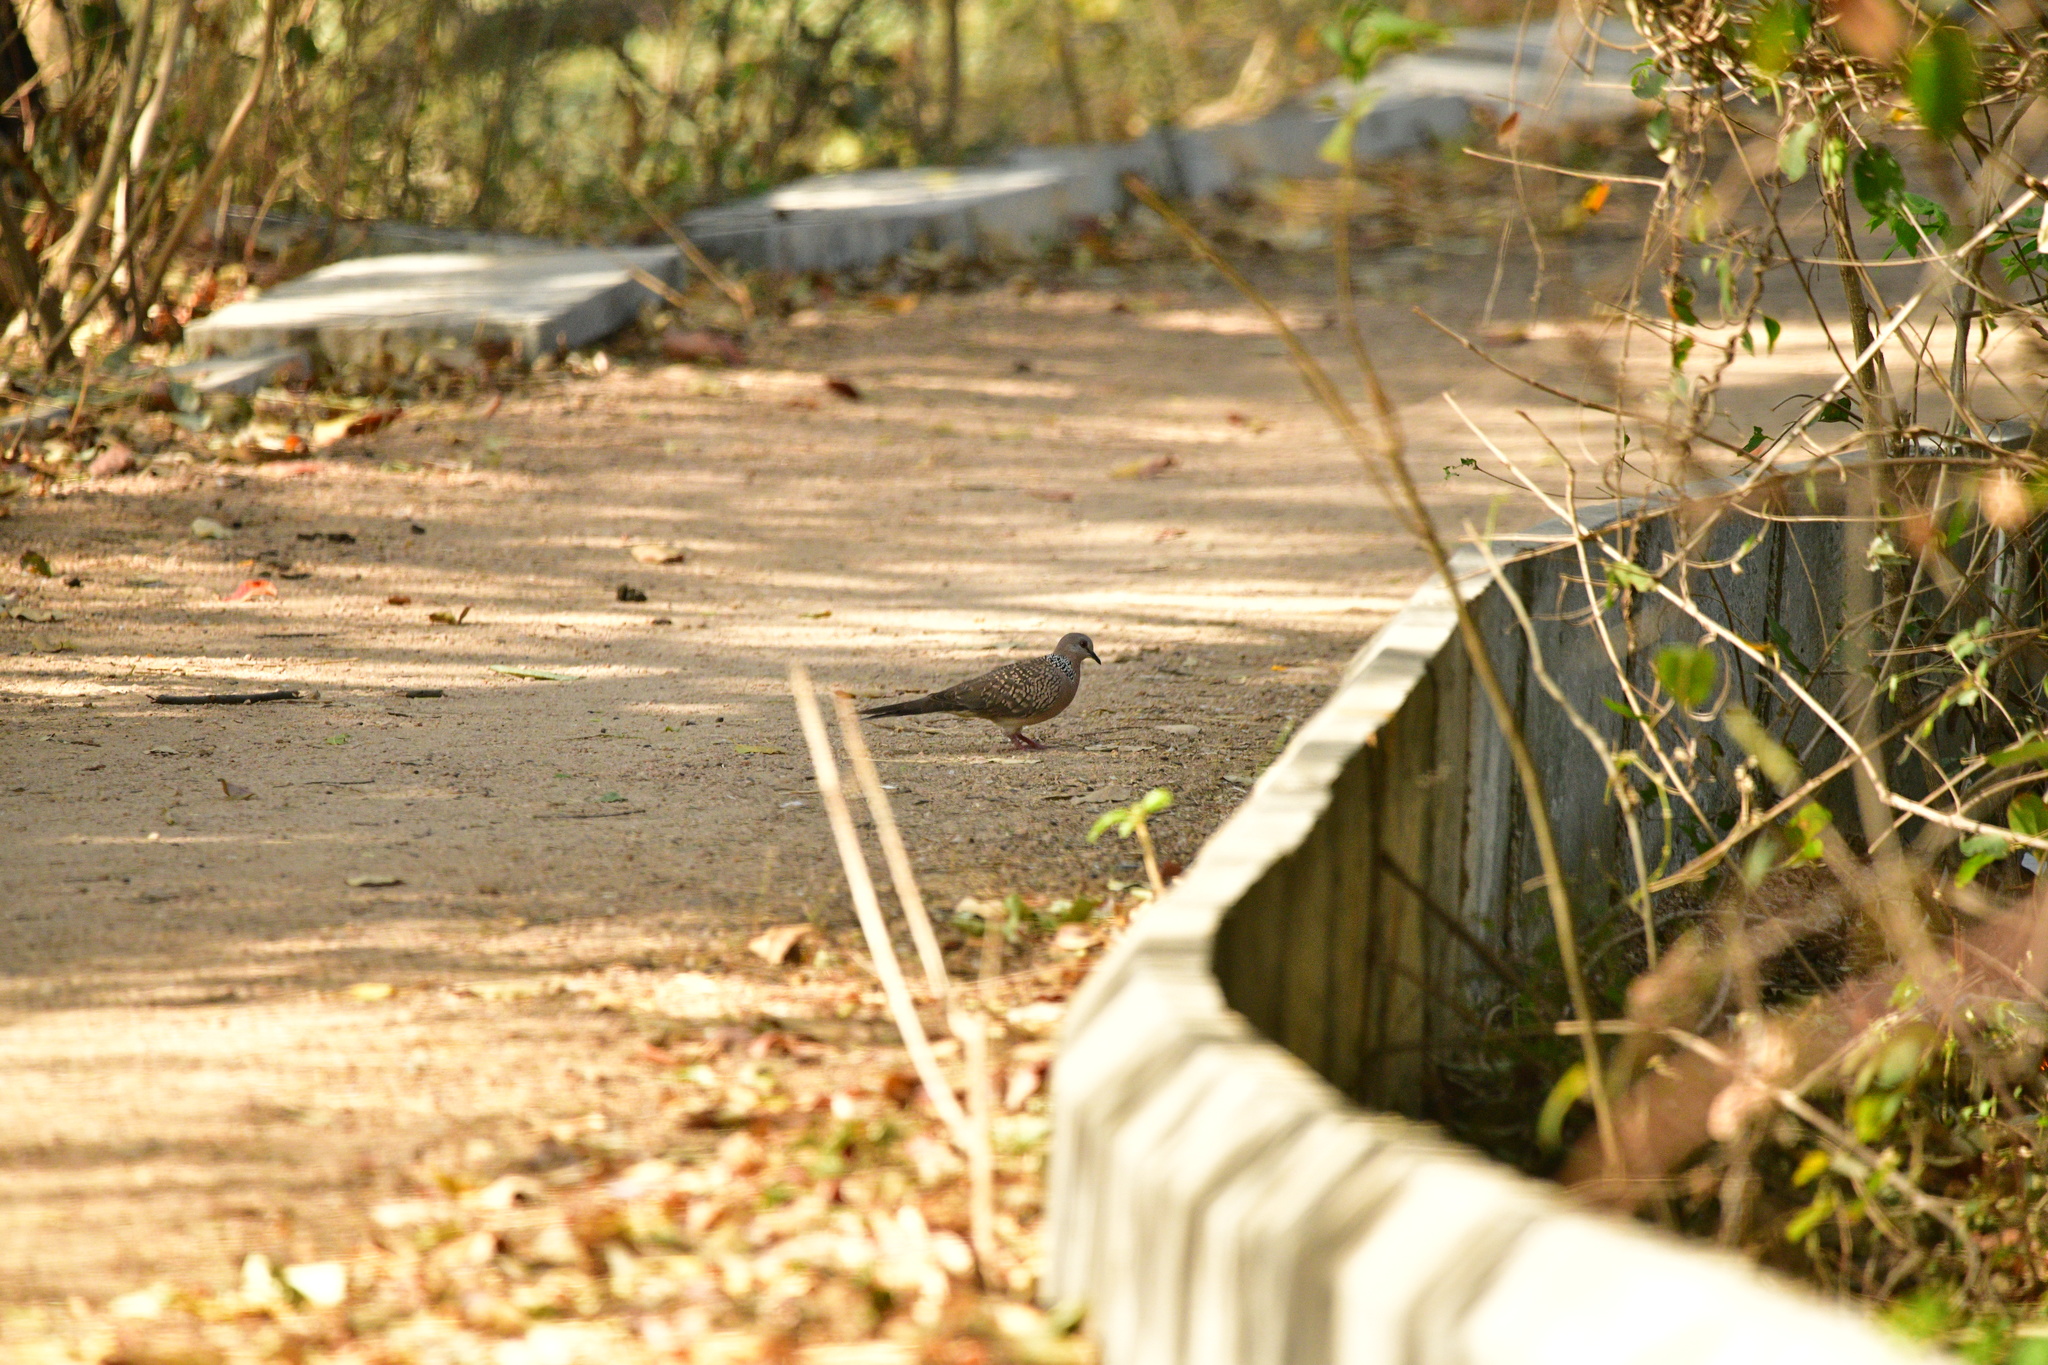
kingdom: Animalia
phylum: Chordata
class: Aves
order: Columbiformes
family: Columbidae
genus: Spilopelia
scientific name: Spilopelia chinensis
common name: Spotted dove
